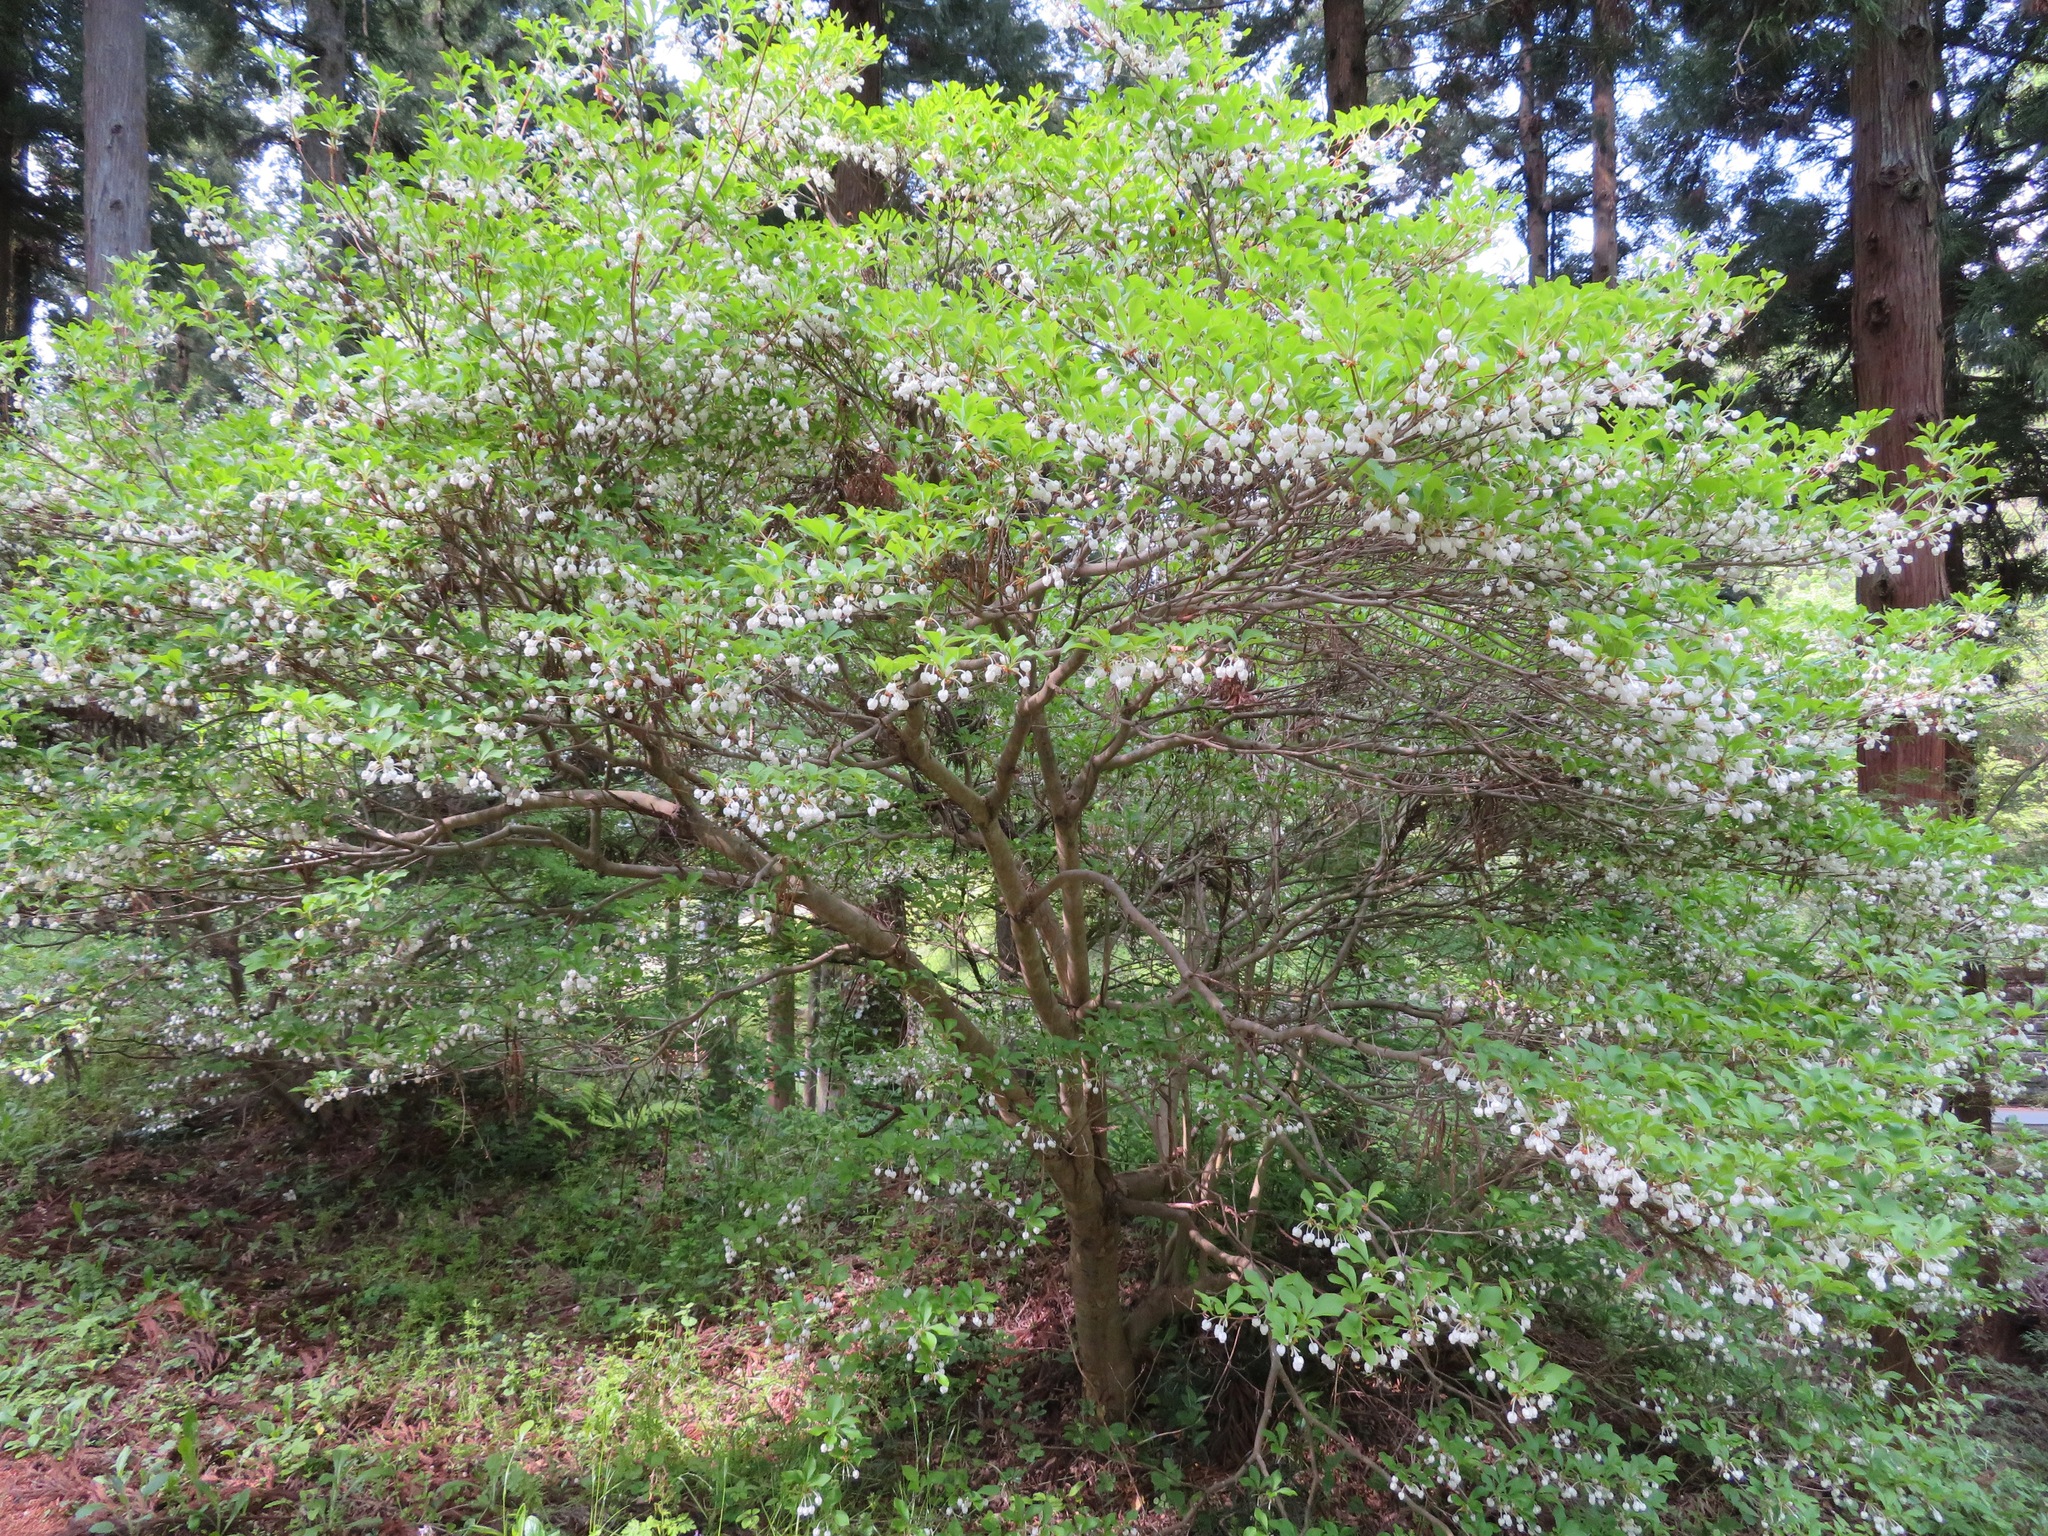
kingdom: Plantae
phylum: Tracheophyta
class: Magnoliopsida
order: Ericales
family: Ericaceae
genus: Enkianthus
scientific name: Enkianthus perulatus
